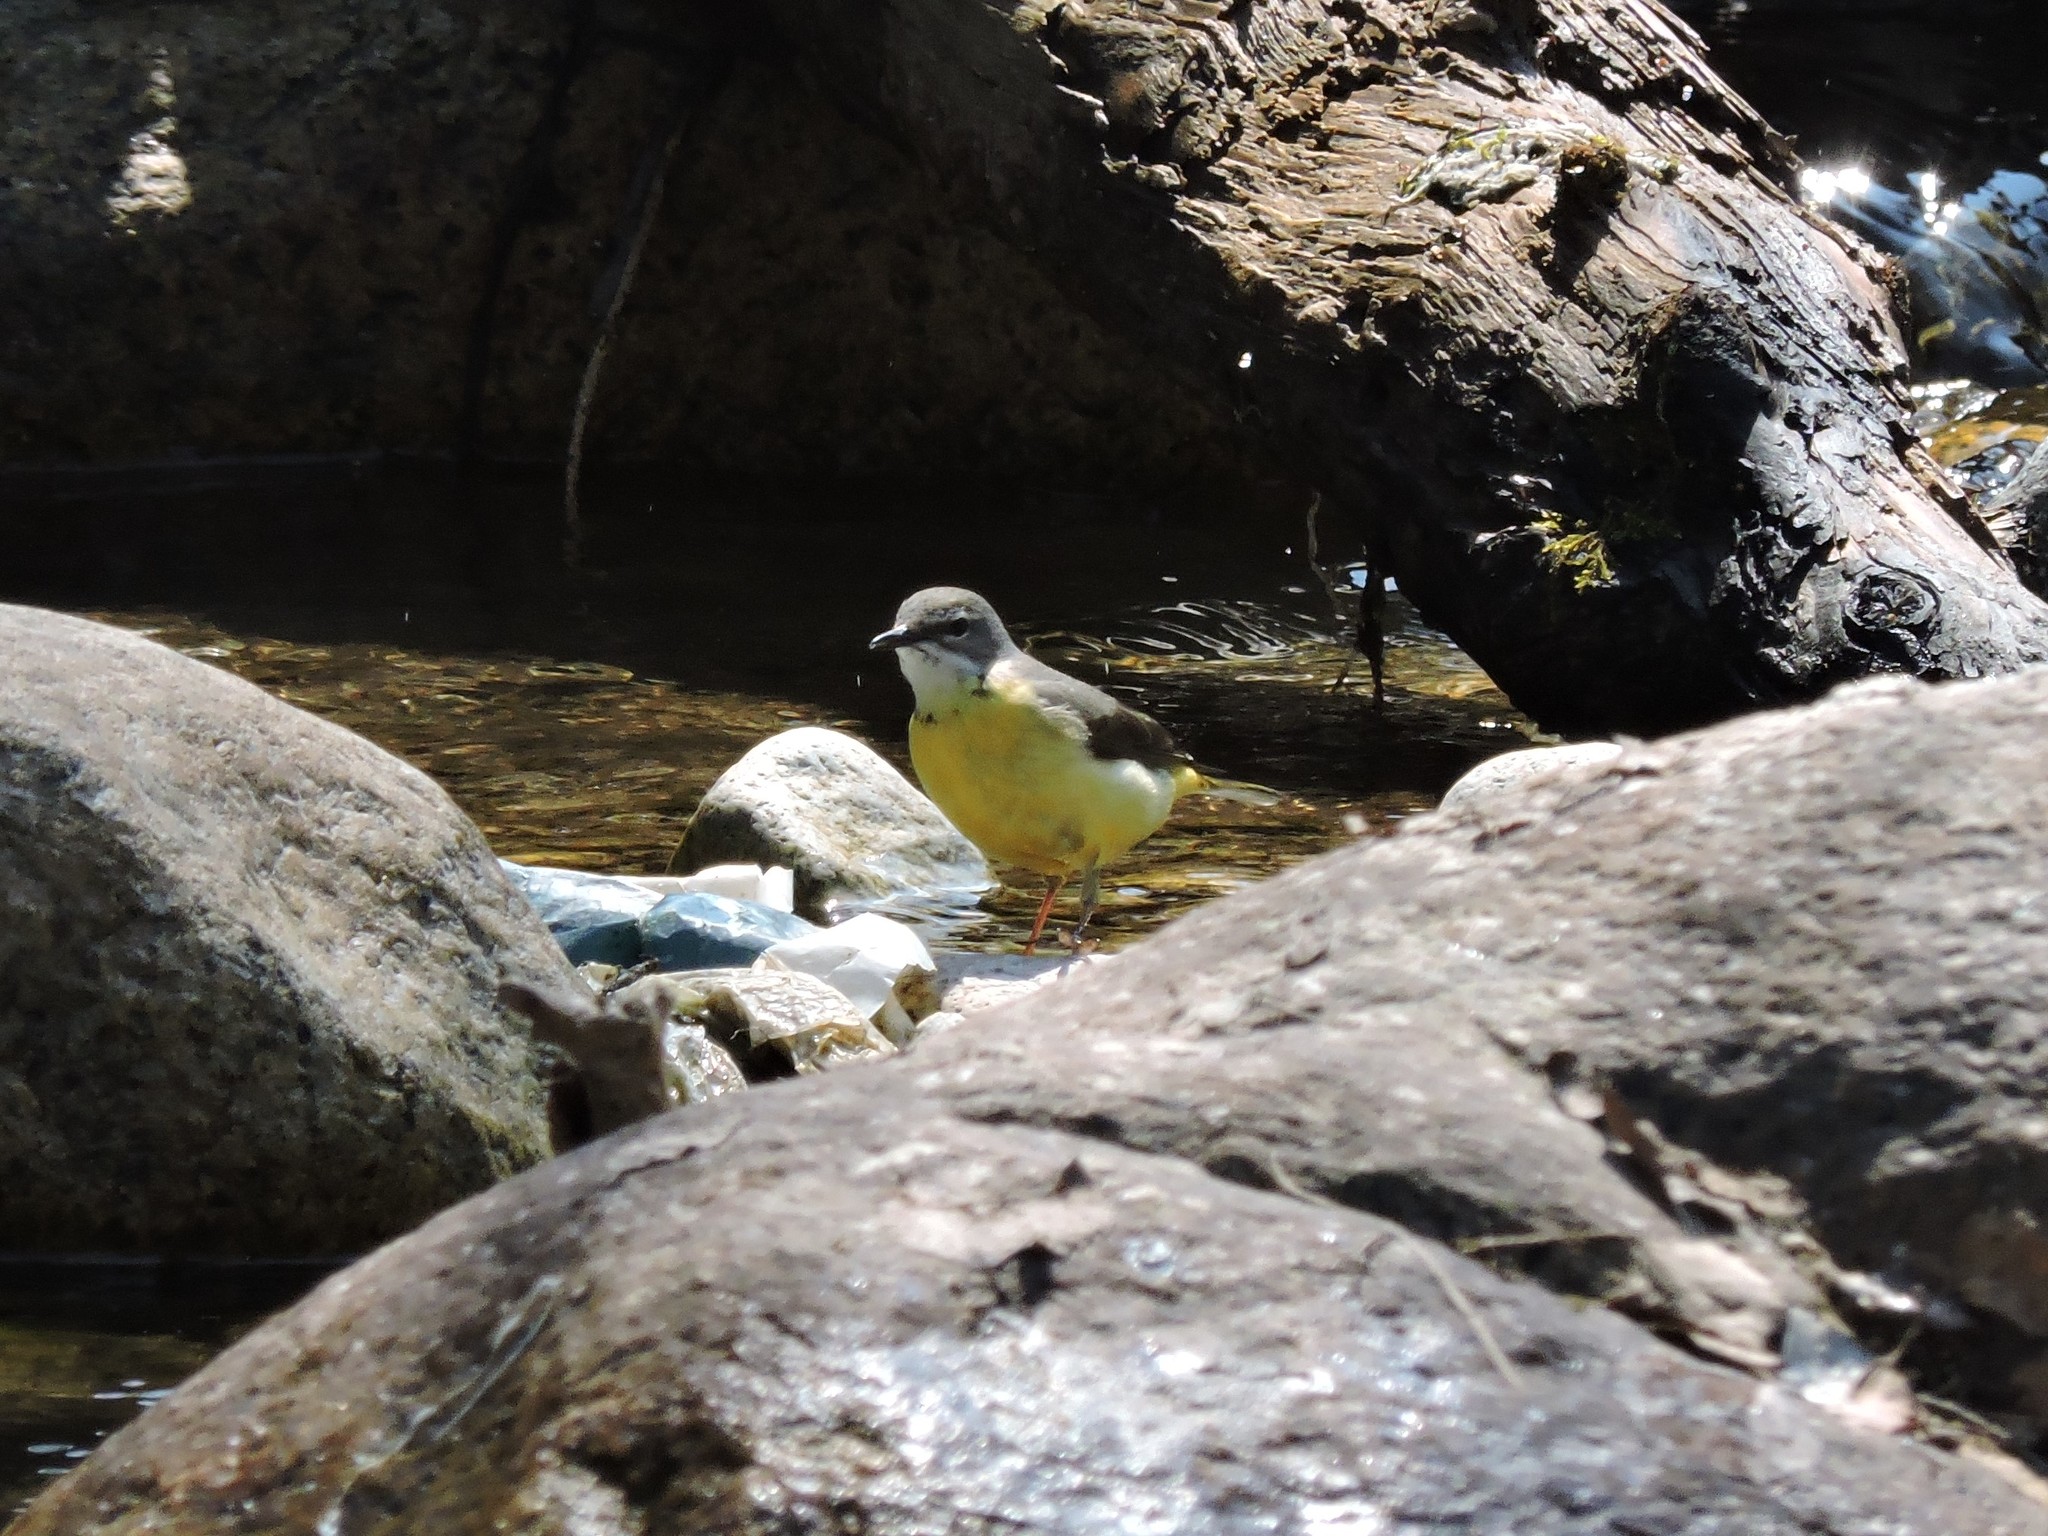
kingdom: Animalia
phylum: Chordata
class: Aves
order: Passeriformes
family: Motacillidae
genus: Motacilla
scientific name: Motacilla cinerea
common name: Grey wagtail
